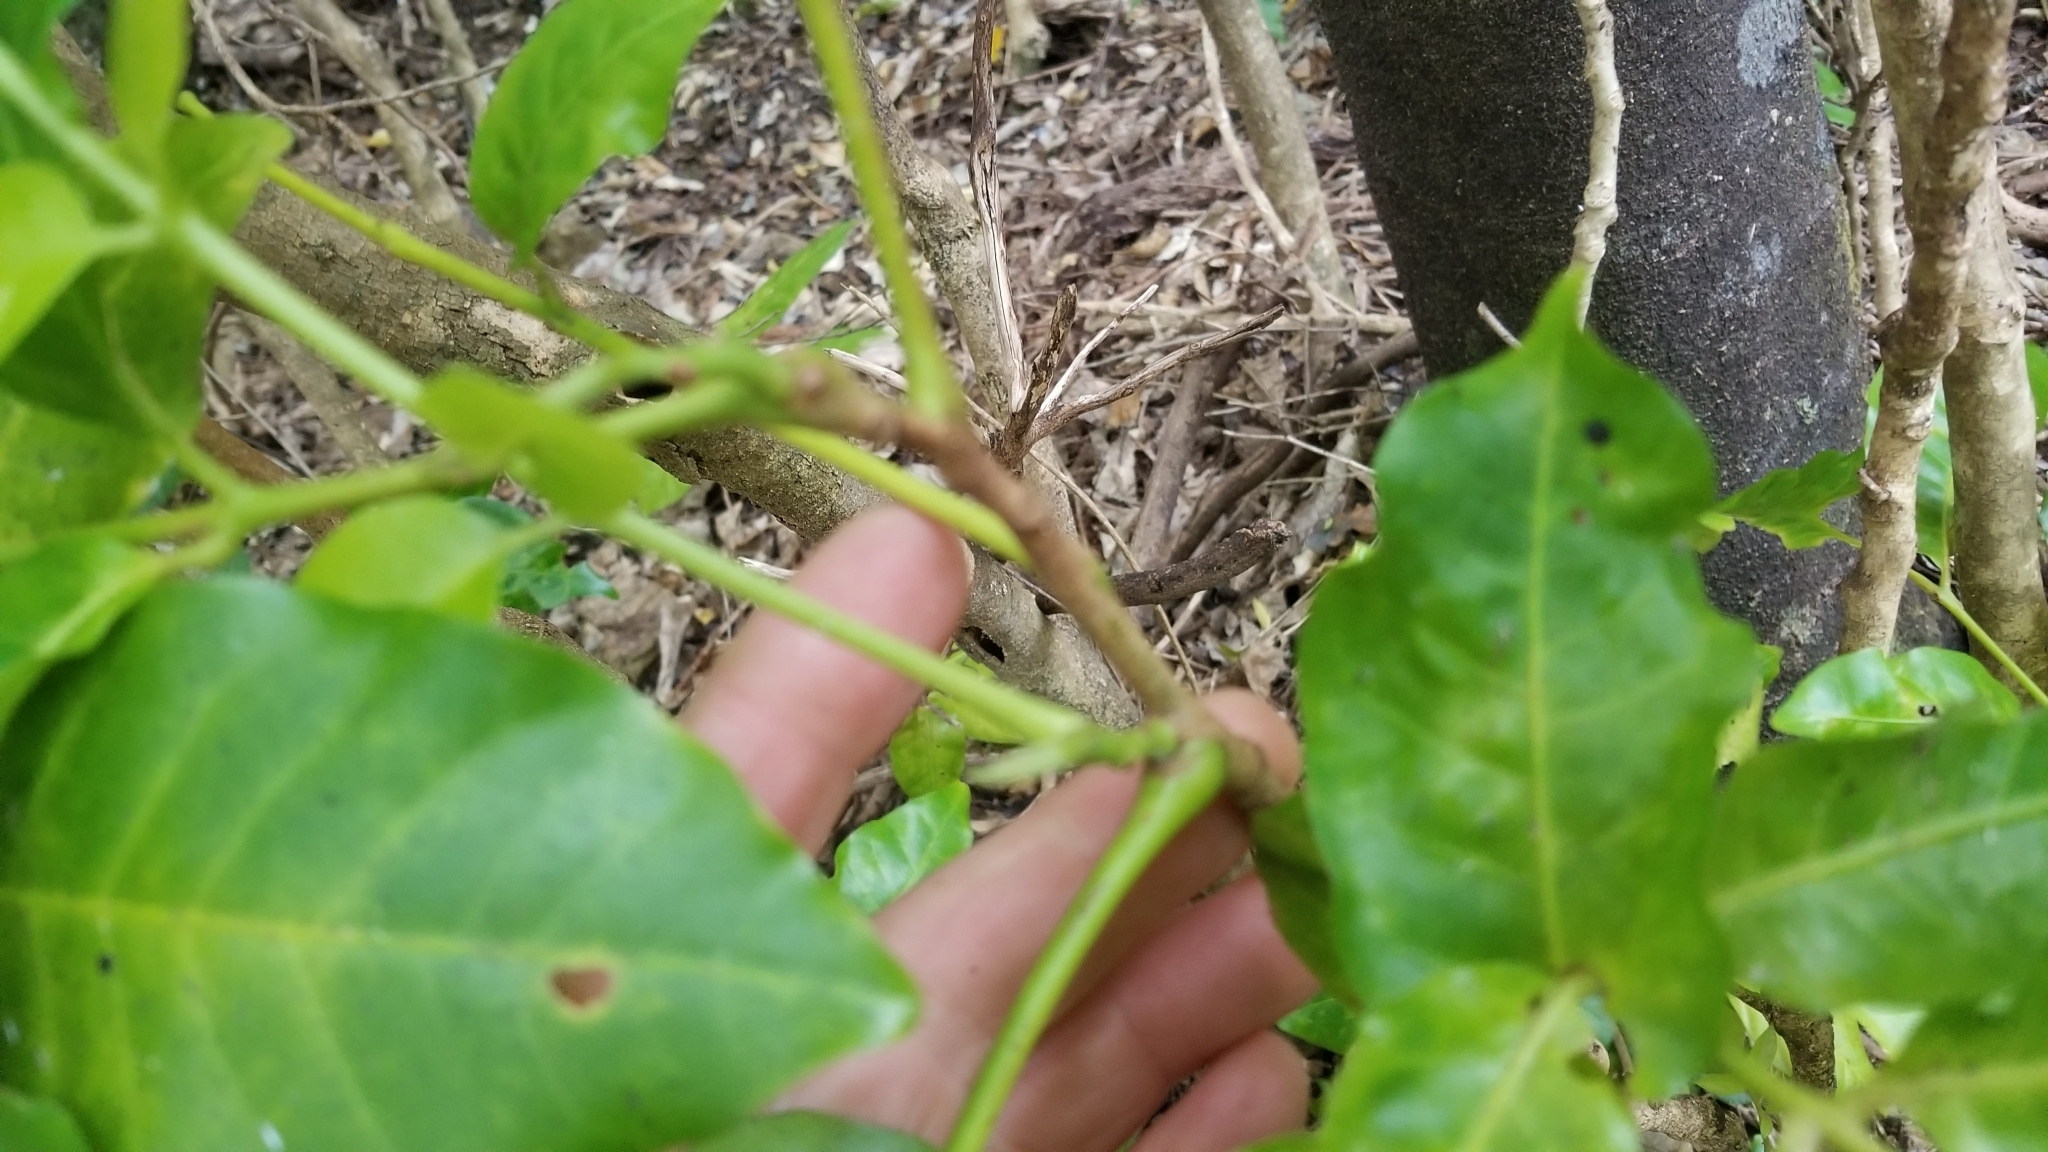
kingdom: Plantae
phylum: Tracheophyta
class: Magnoliopsida
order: Sapindales
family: Meliaceae
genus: Didymocheton
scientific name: Didymocheton spectabilis
